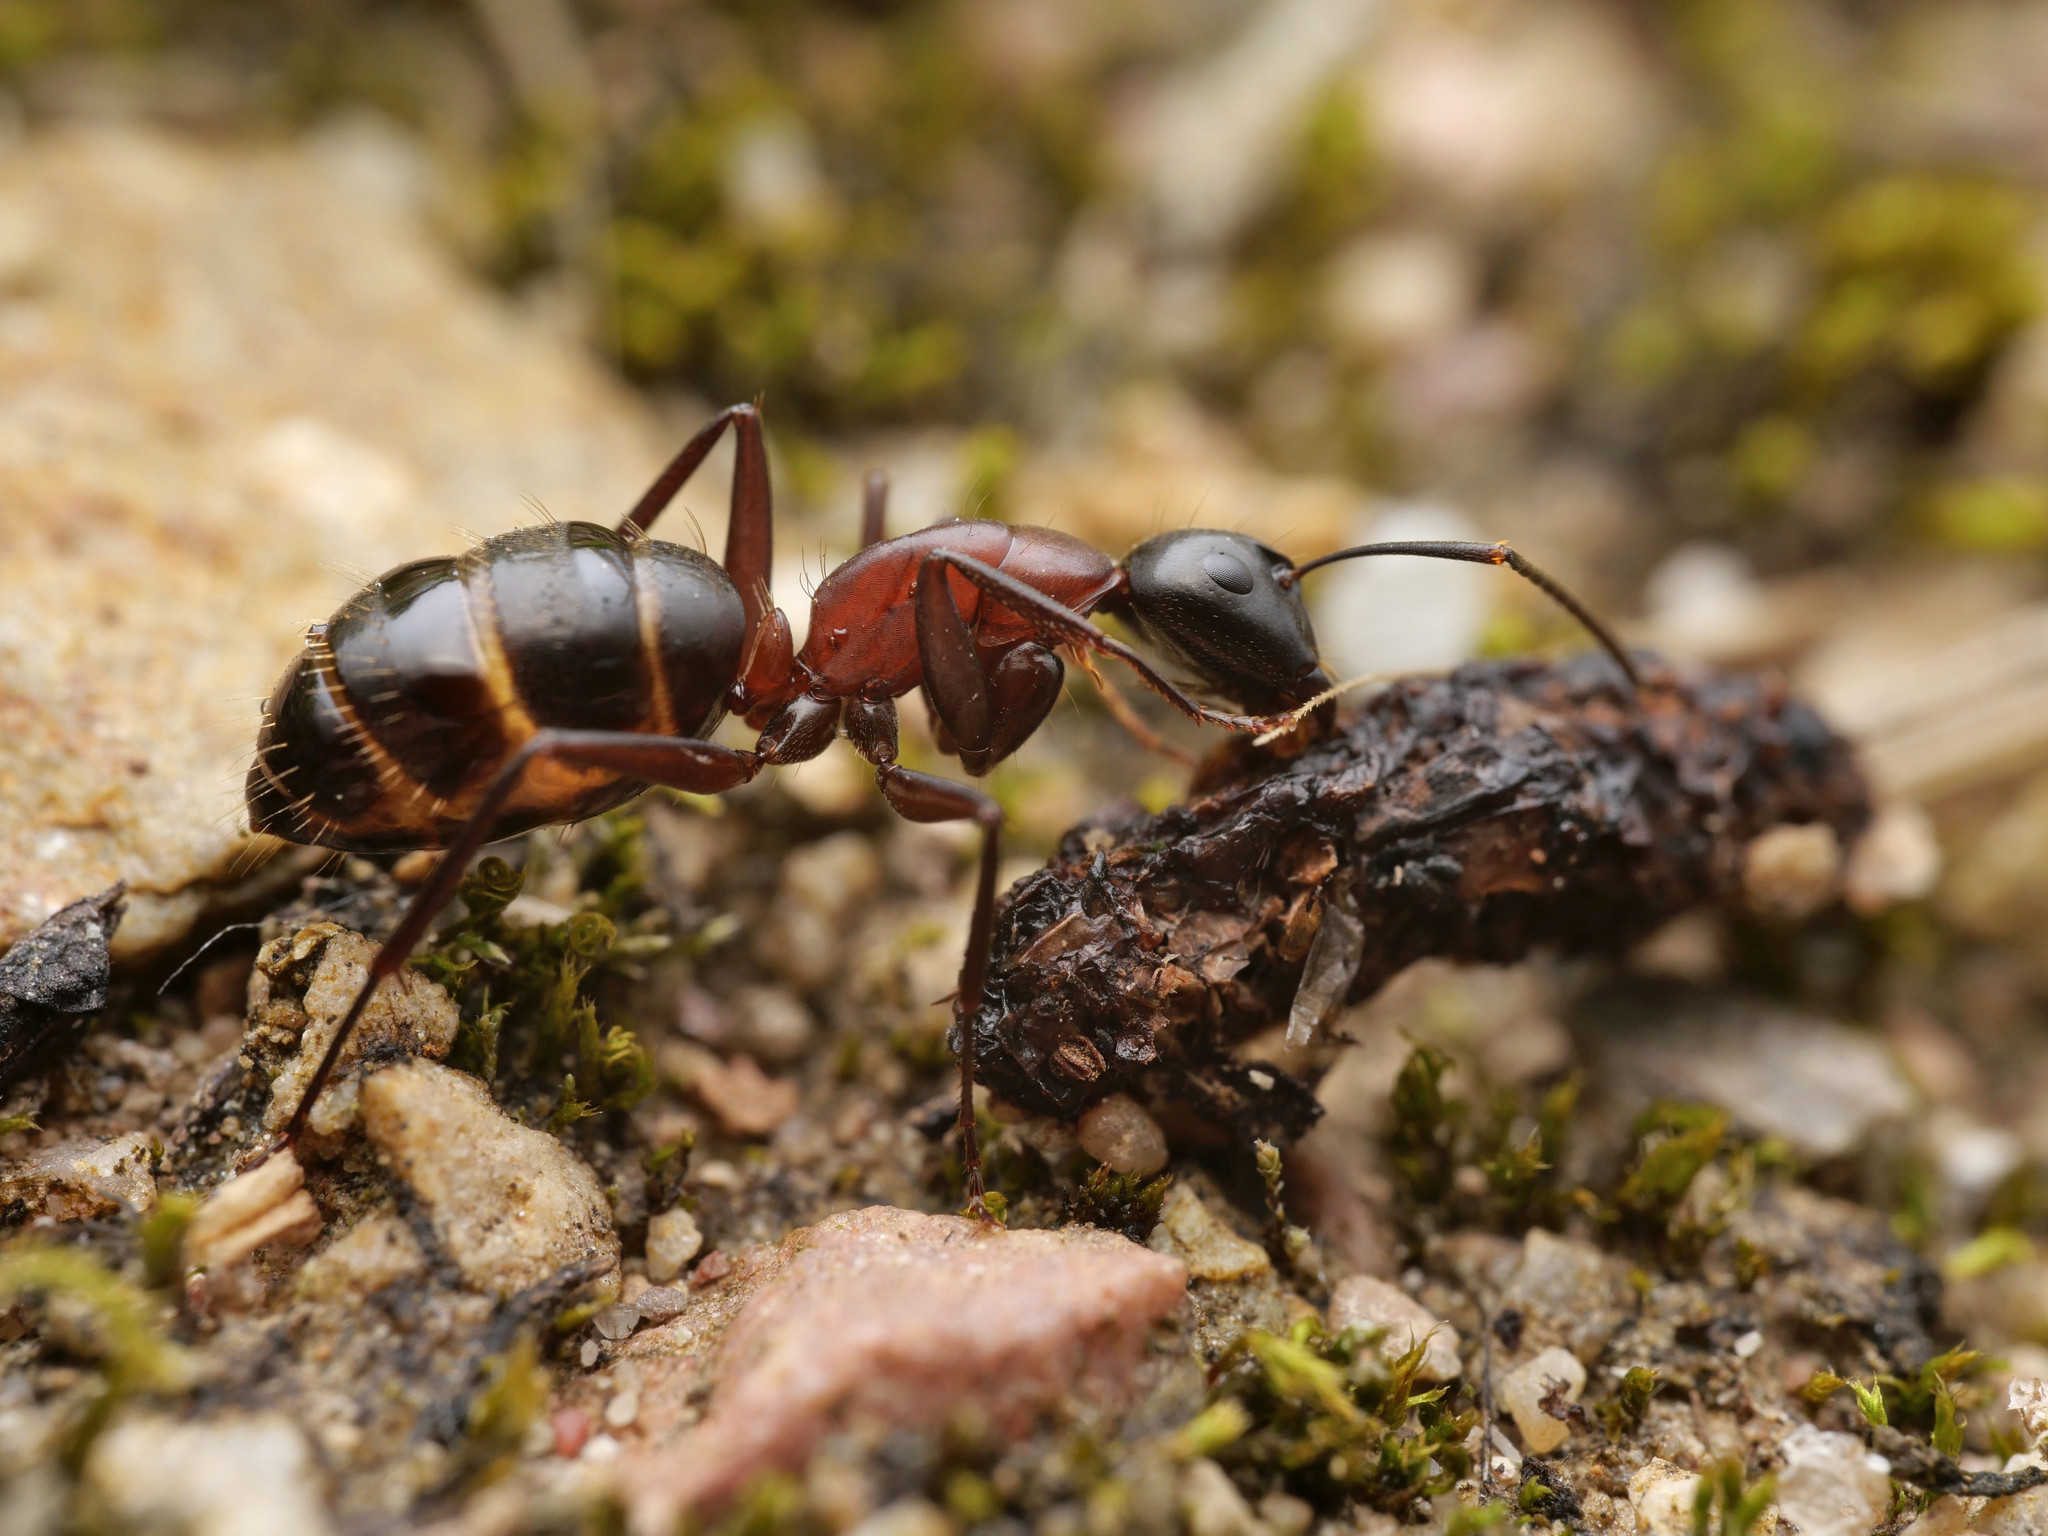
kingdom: Animalia
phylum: Arthropoda
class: Insecta
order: Hymenoptera
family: Formicidae
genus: Camponotus
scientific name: Camponotus ligniperdus
